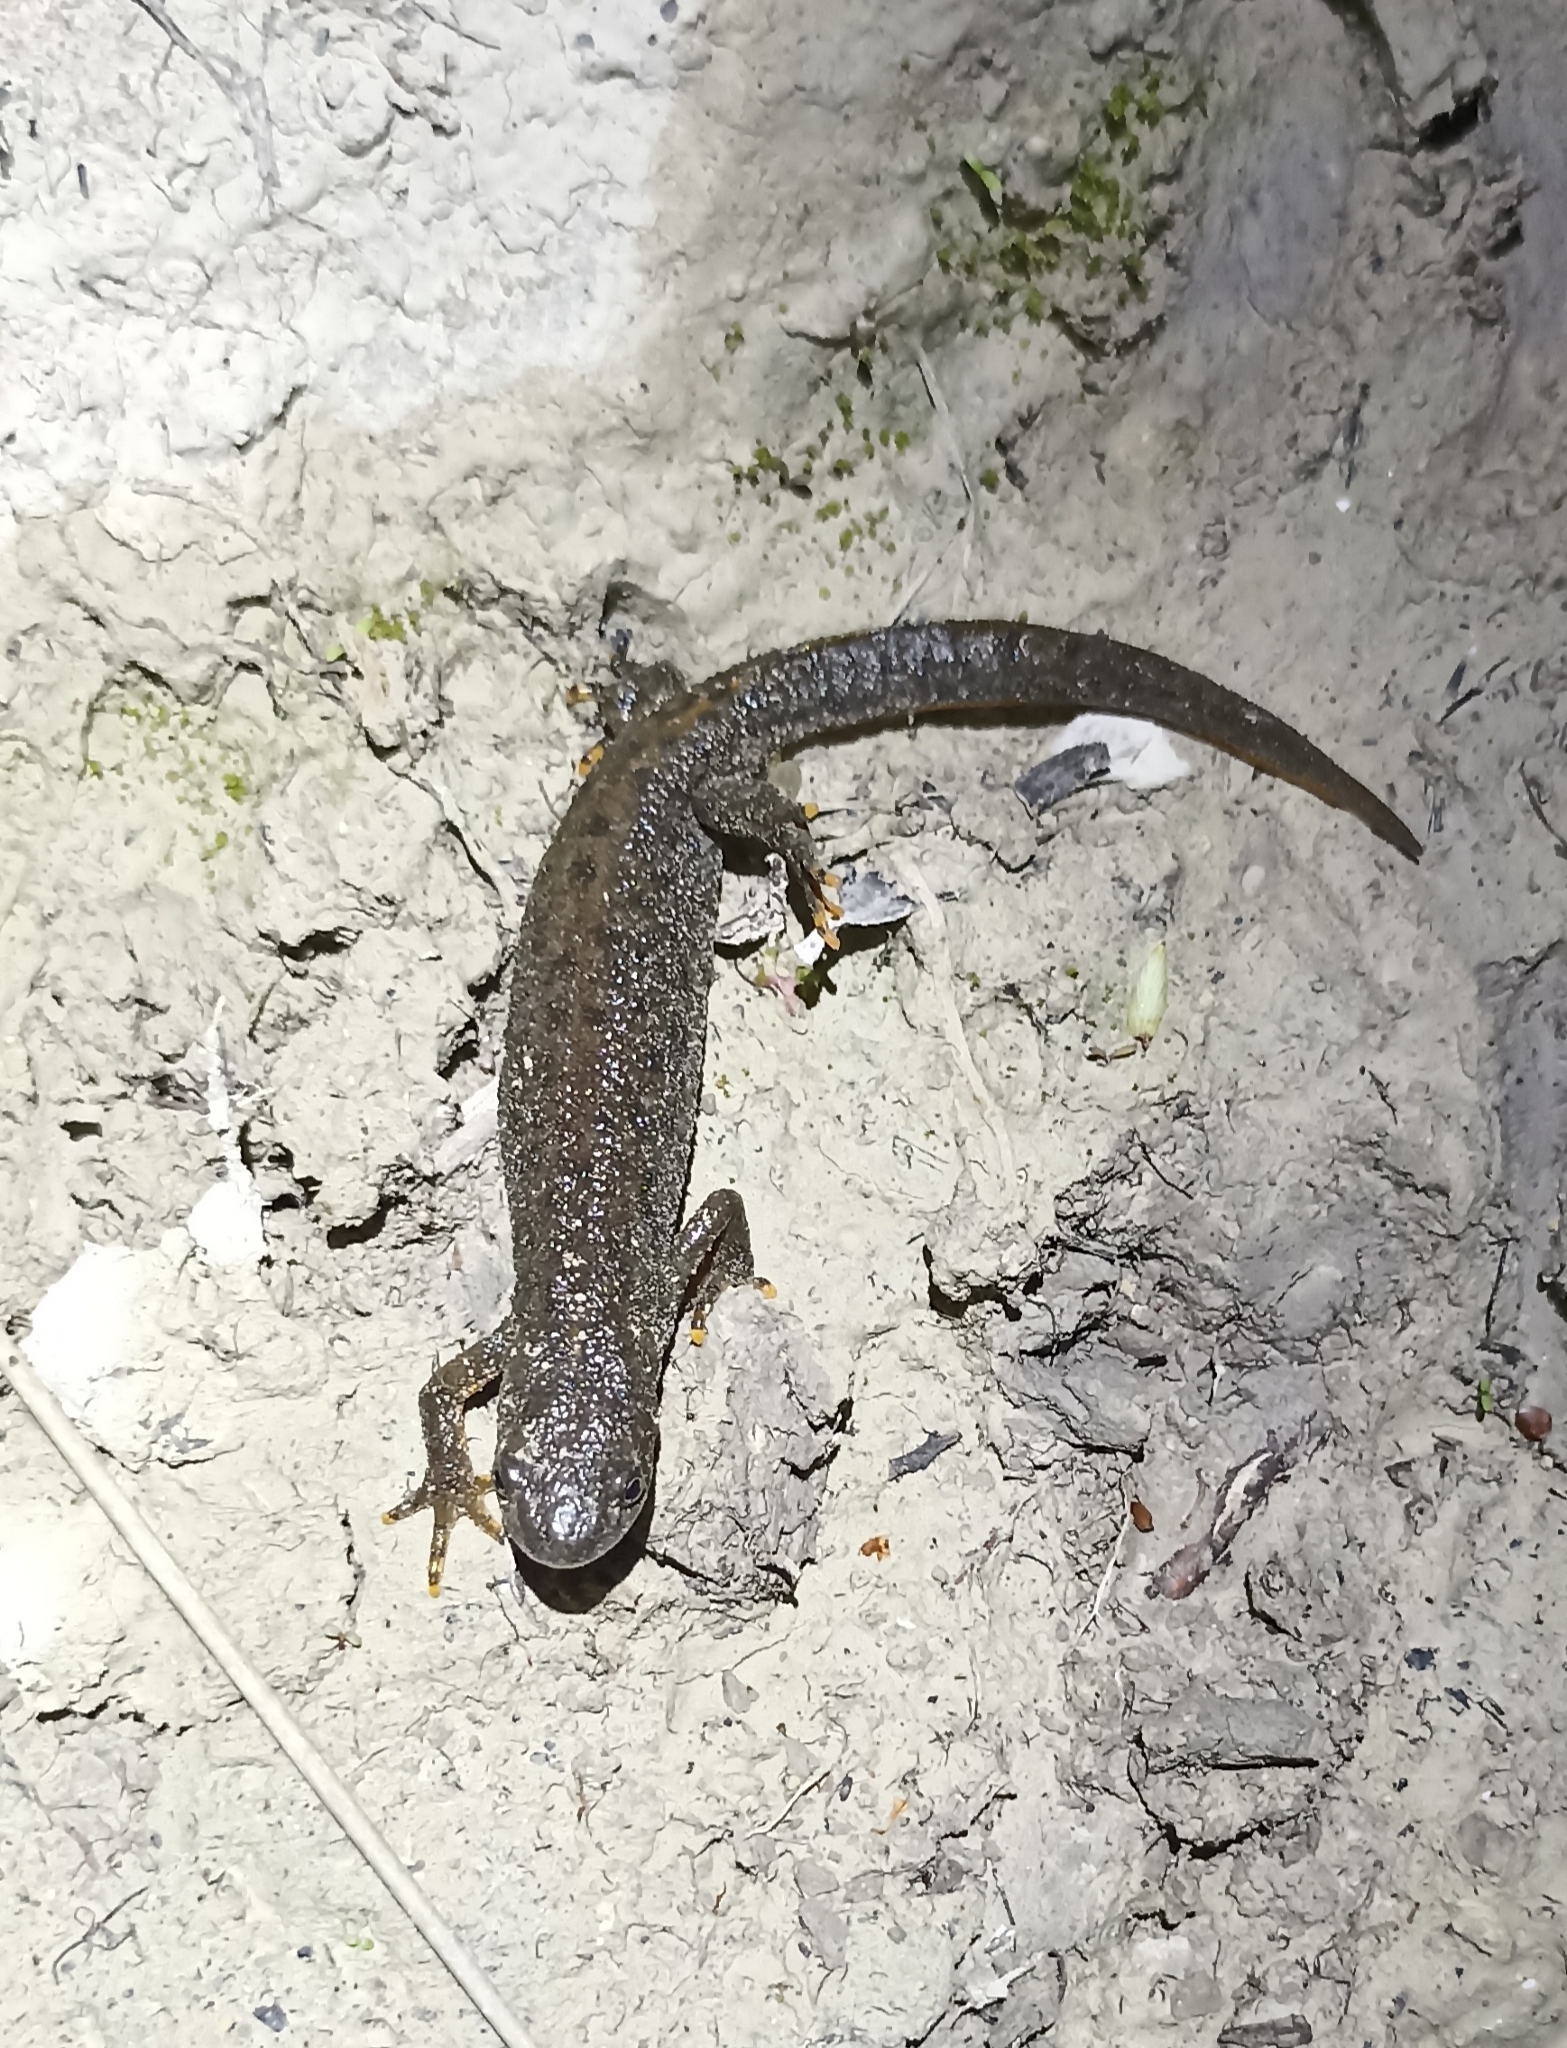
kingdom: Animalia
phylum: Chordata
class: Amphibia
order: Caudata
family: Salamandridae
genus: Triturus
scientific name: Triturus cristatus
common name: Crested newt
